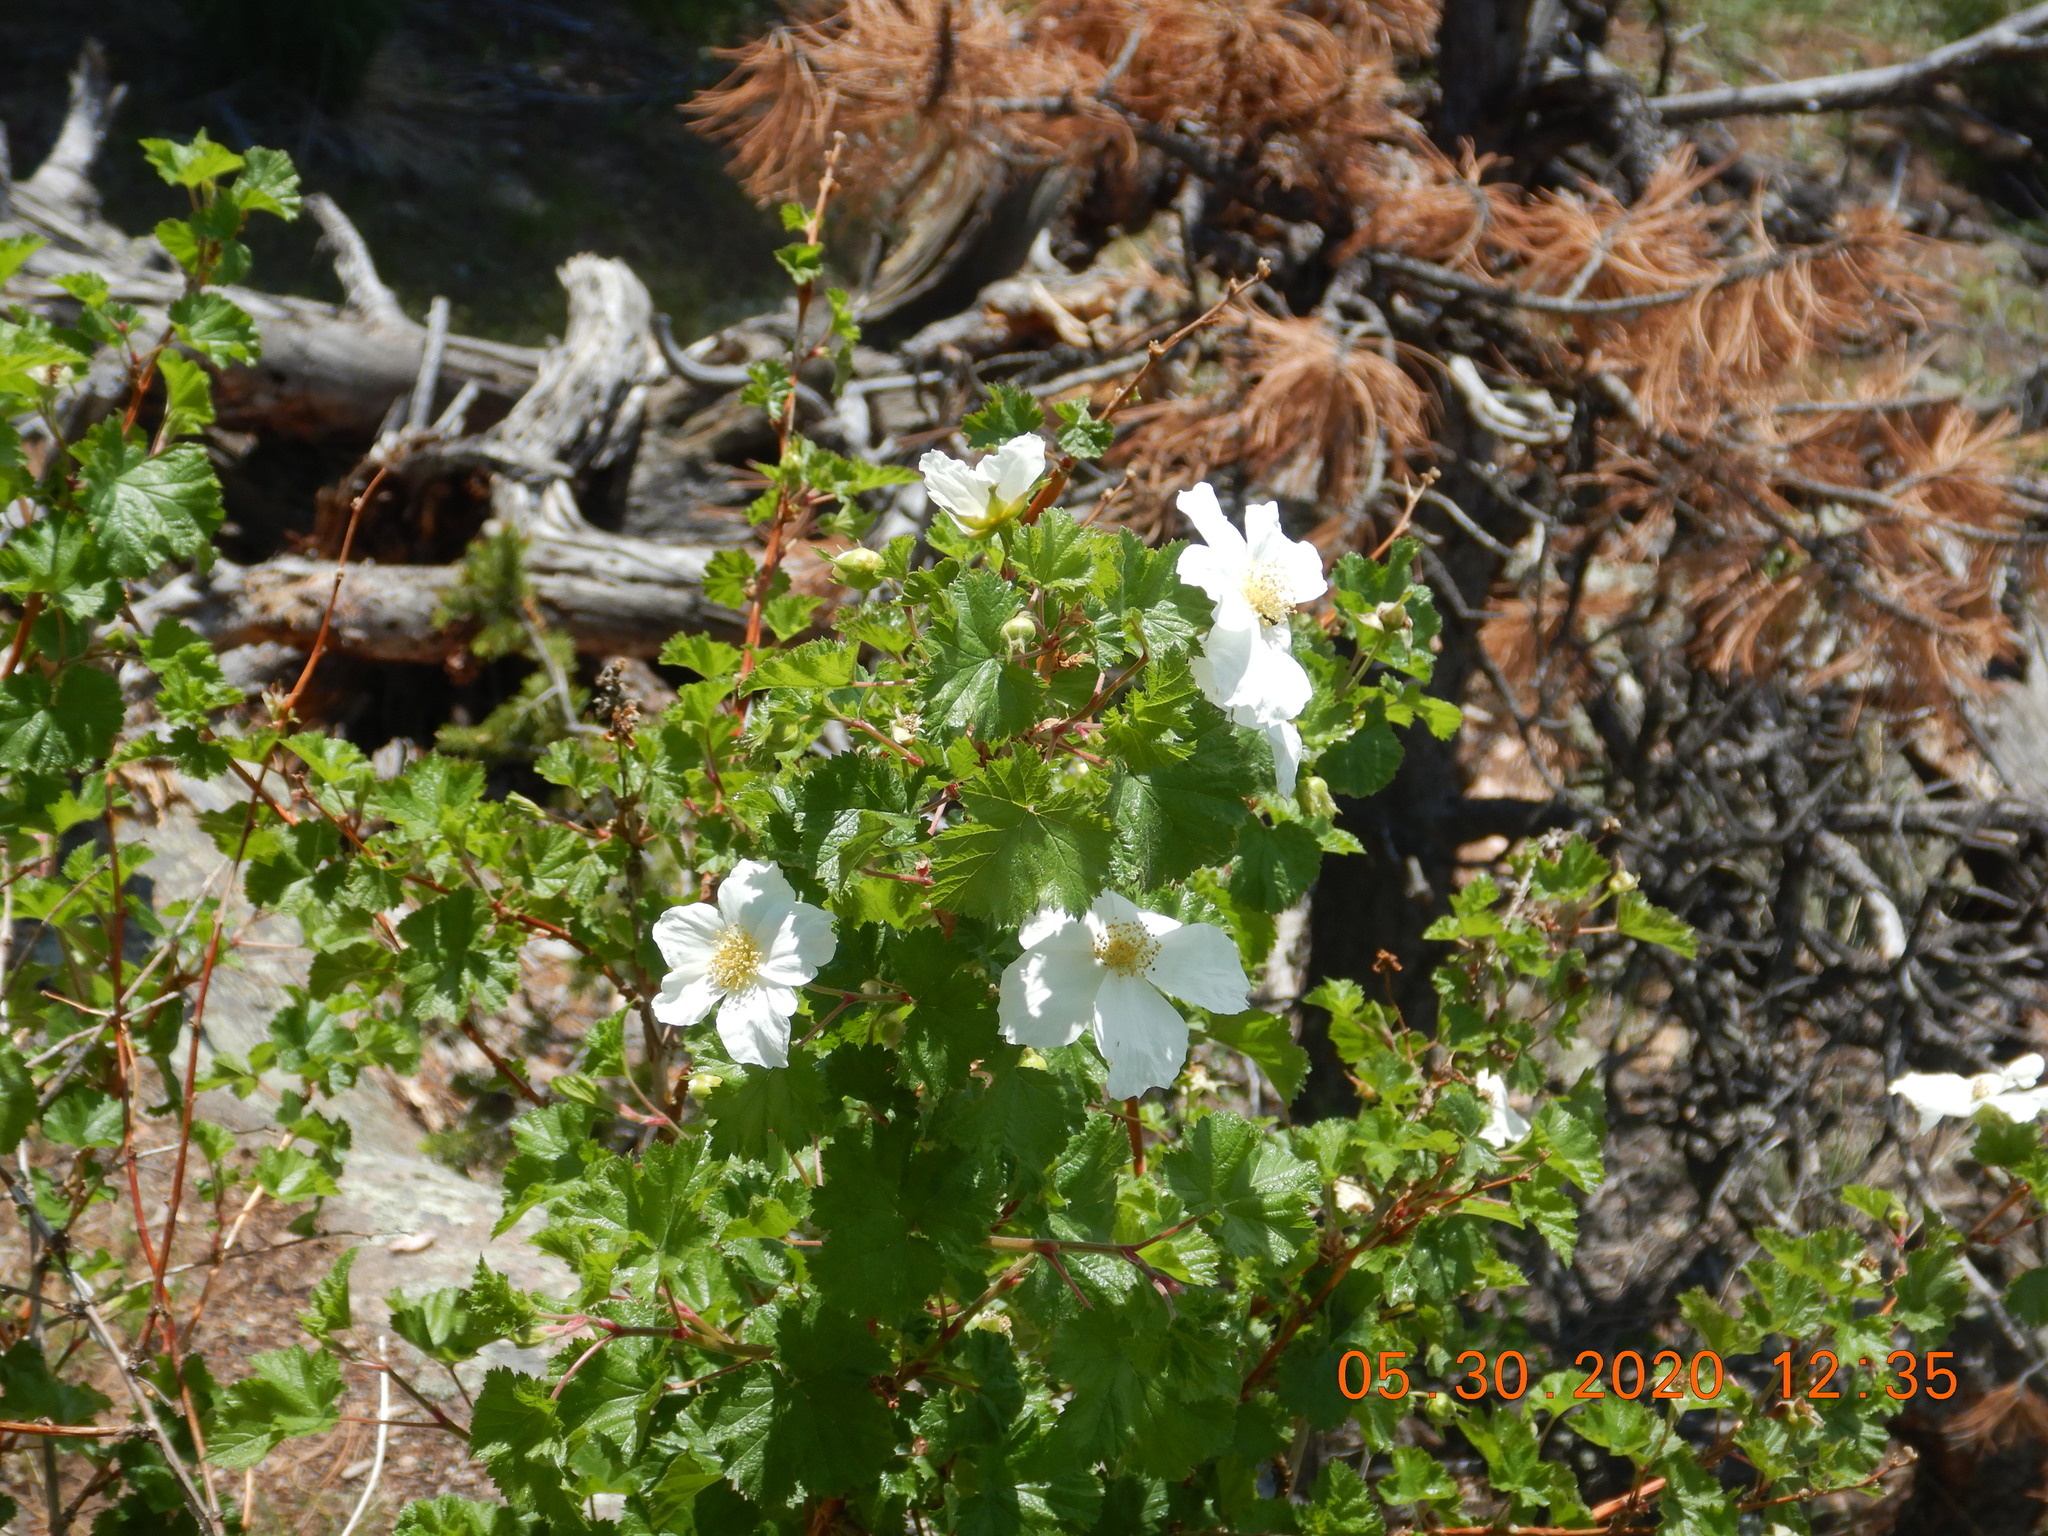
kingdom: Plantae
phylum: Tracheophyta
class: Magnoliopsida
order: Rosales
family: Rosaceae
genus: Rubus
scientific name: Rubus deliciosus
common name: Rocky mountain raspberry
